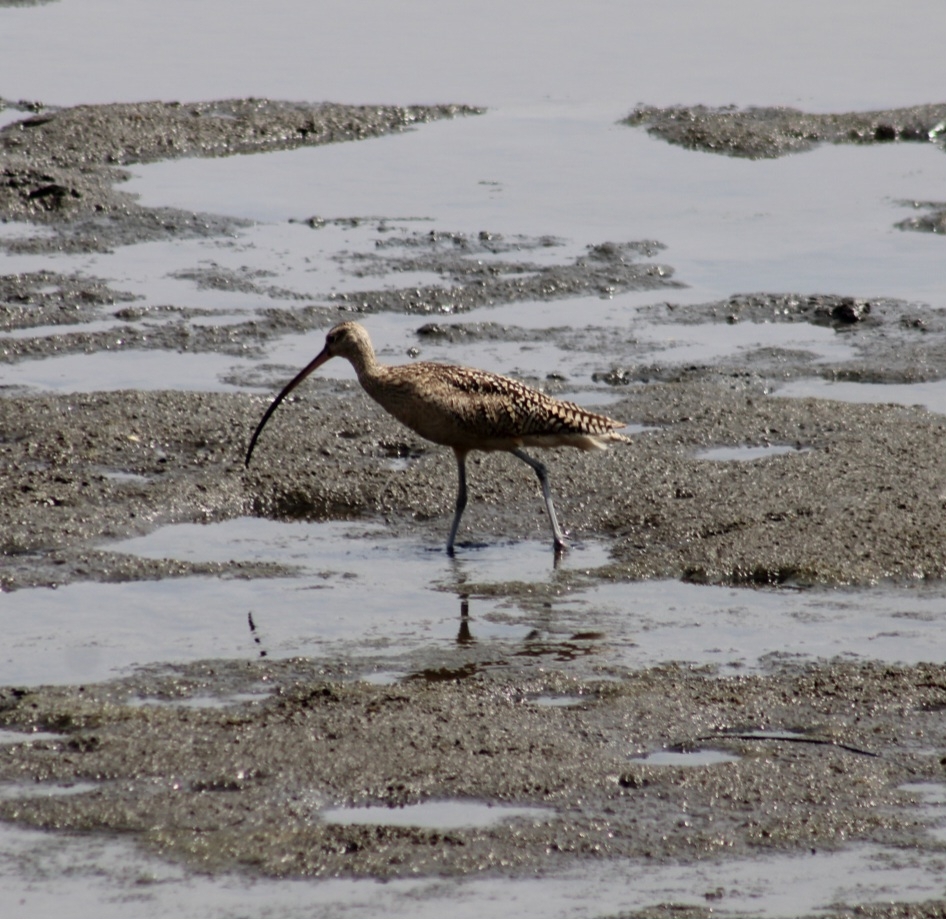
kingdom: Animalia
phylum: Chordata
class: Aves
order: Charadriiformes
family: Scolopacidae
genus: Numenius
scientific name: Numenius americanus
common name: Long-billed curlew
